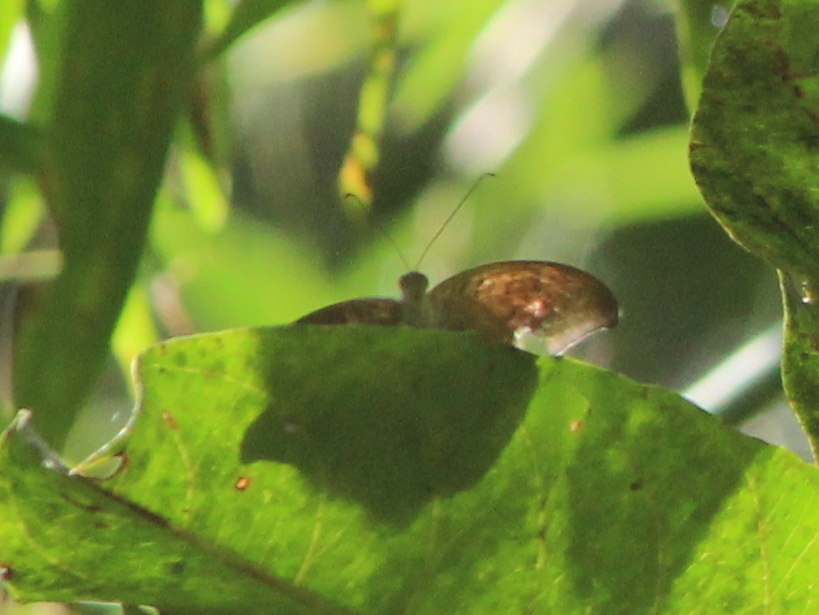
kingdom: Animalia
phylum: Arthropoda
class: Insecta
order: Lepidoptera
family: Nymphalidae
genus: Tanaecia
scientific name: Tanaecia lepidea
